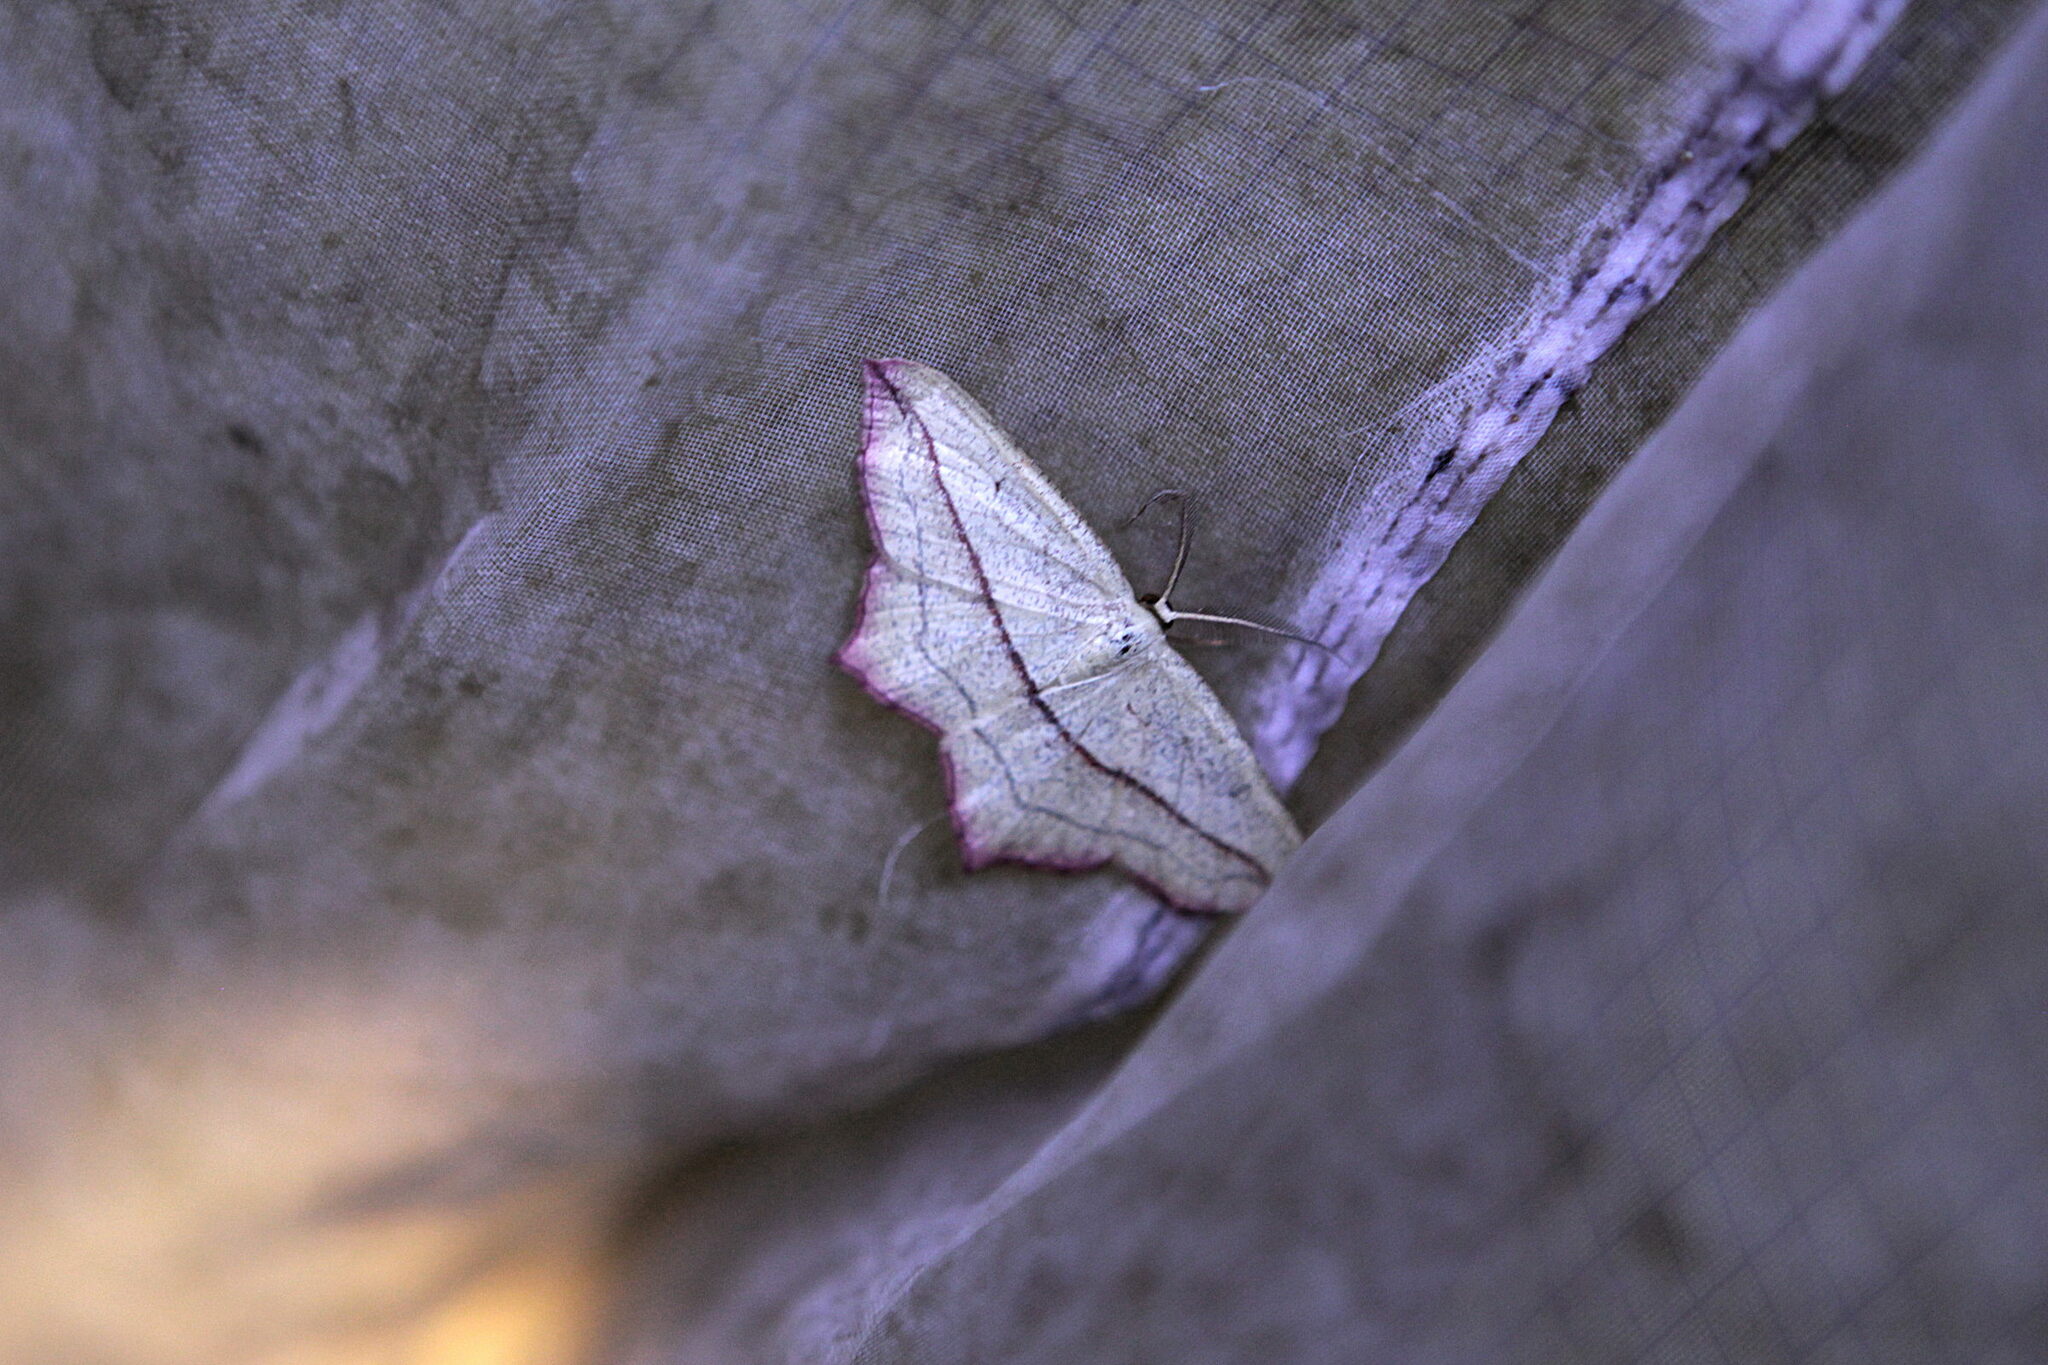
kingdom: Animalia
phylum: Arthropoda
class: Insecta
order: Lepidoptera
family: Geometridae
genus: Timandra
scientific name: Timandra comae
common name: Blood-vein
